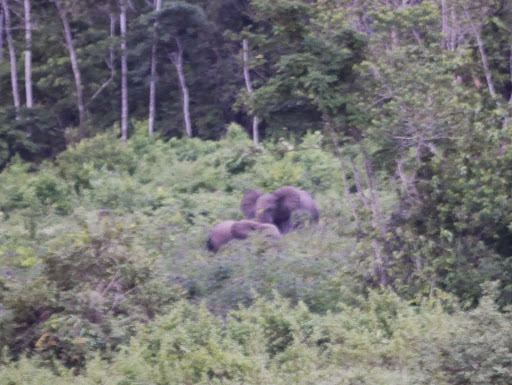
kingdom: Animalia
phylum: Chordata
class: Mammalia
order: Proboscidea
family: Elephantidae
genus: Loxodonta
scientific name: Loxodonta cyclotis
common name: African forest elephant
